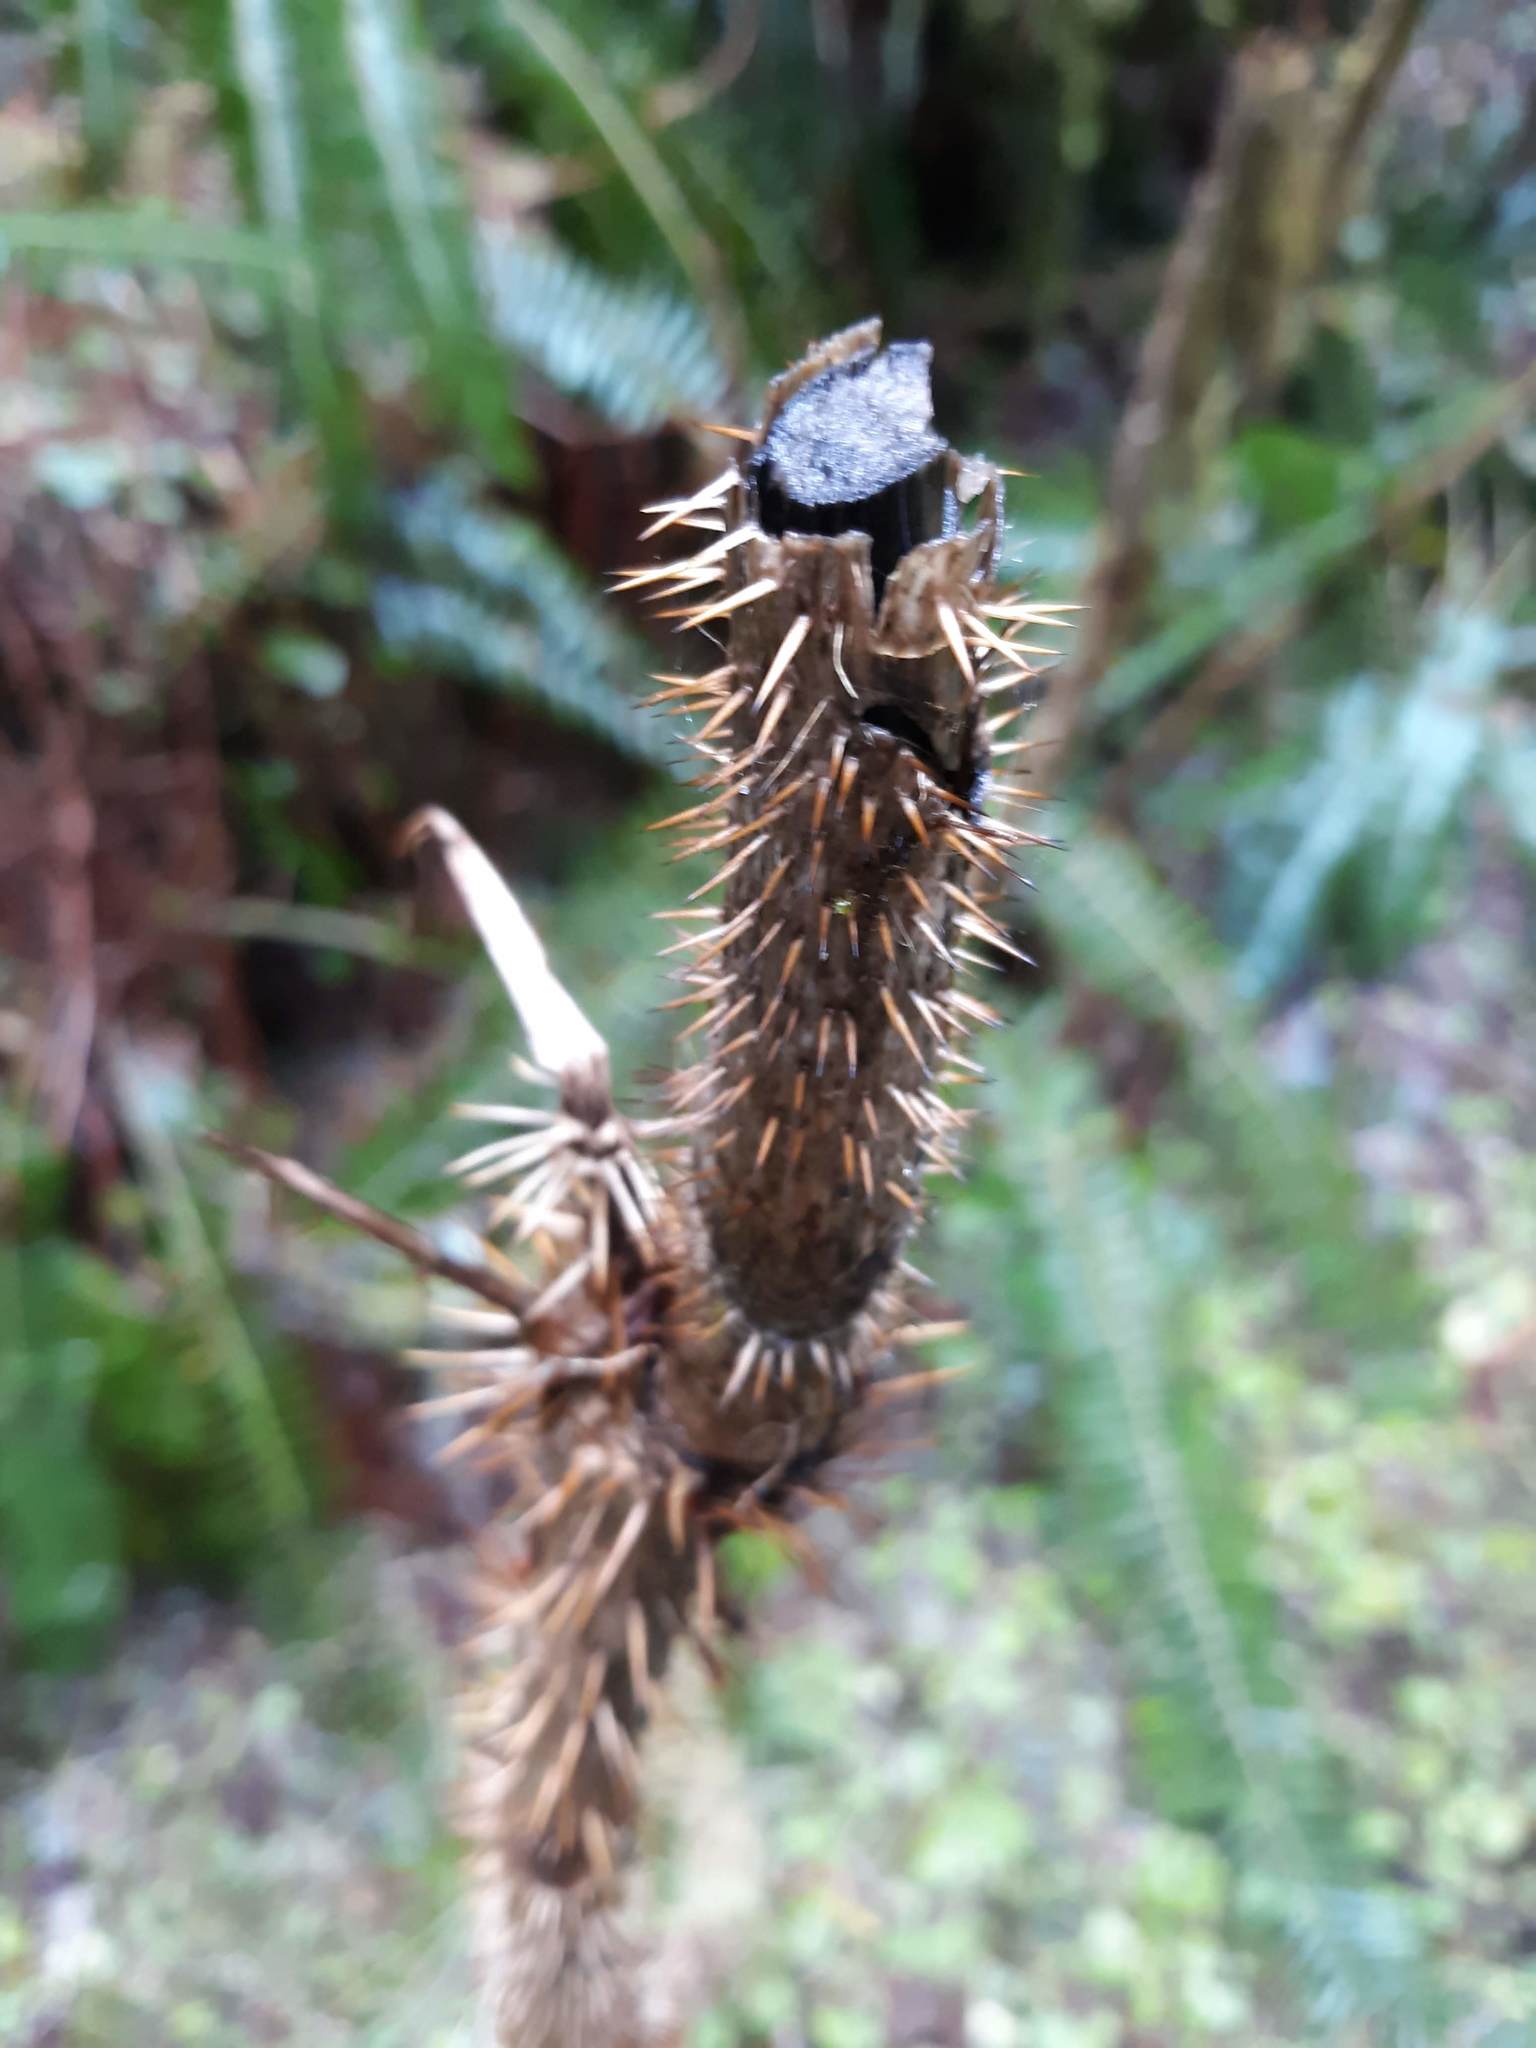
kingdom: Plantae
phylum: Tracheophyta
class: Magnoliopsida
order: Apiales
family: Araliaceae
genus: Oplopanax
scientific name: Oplopanax horridus
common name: Devil's walking-stick
